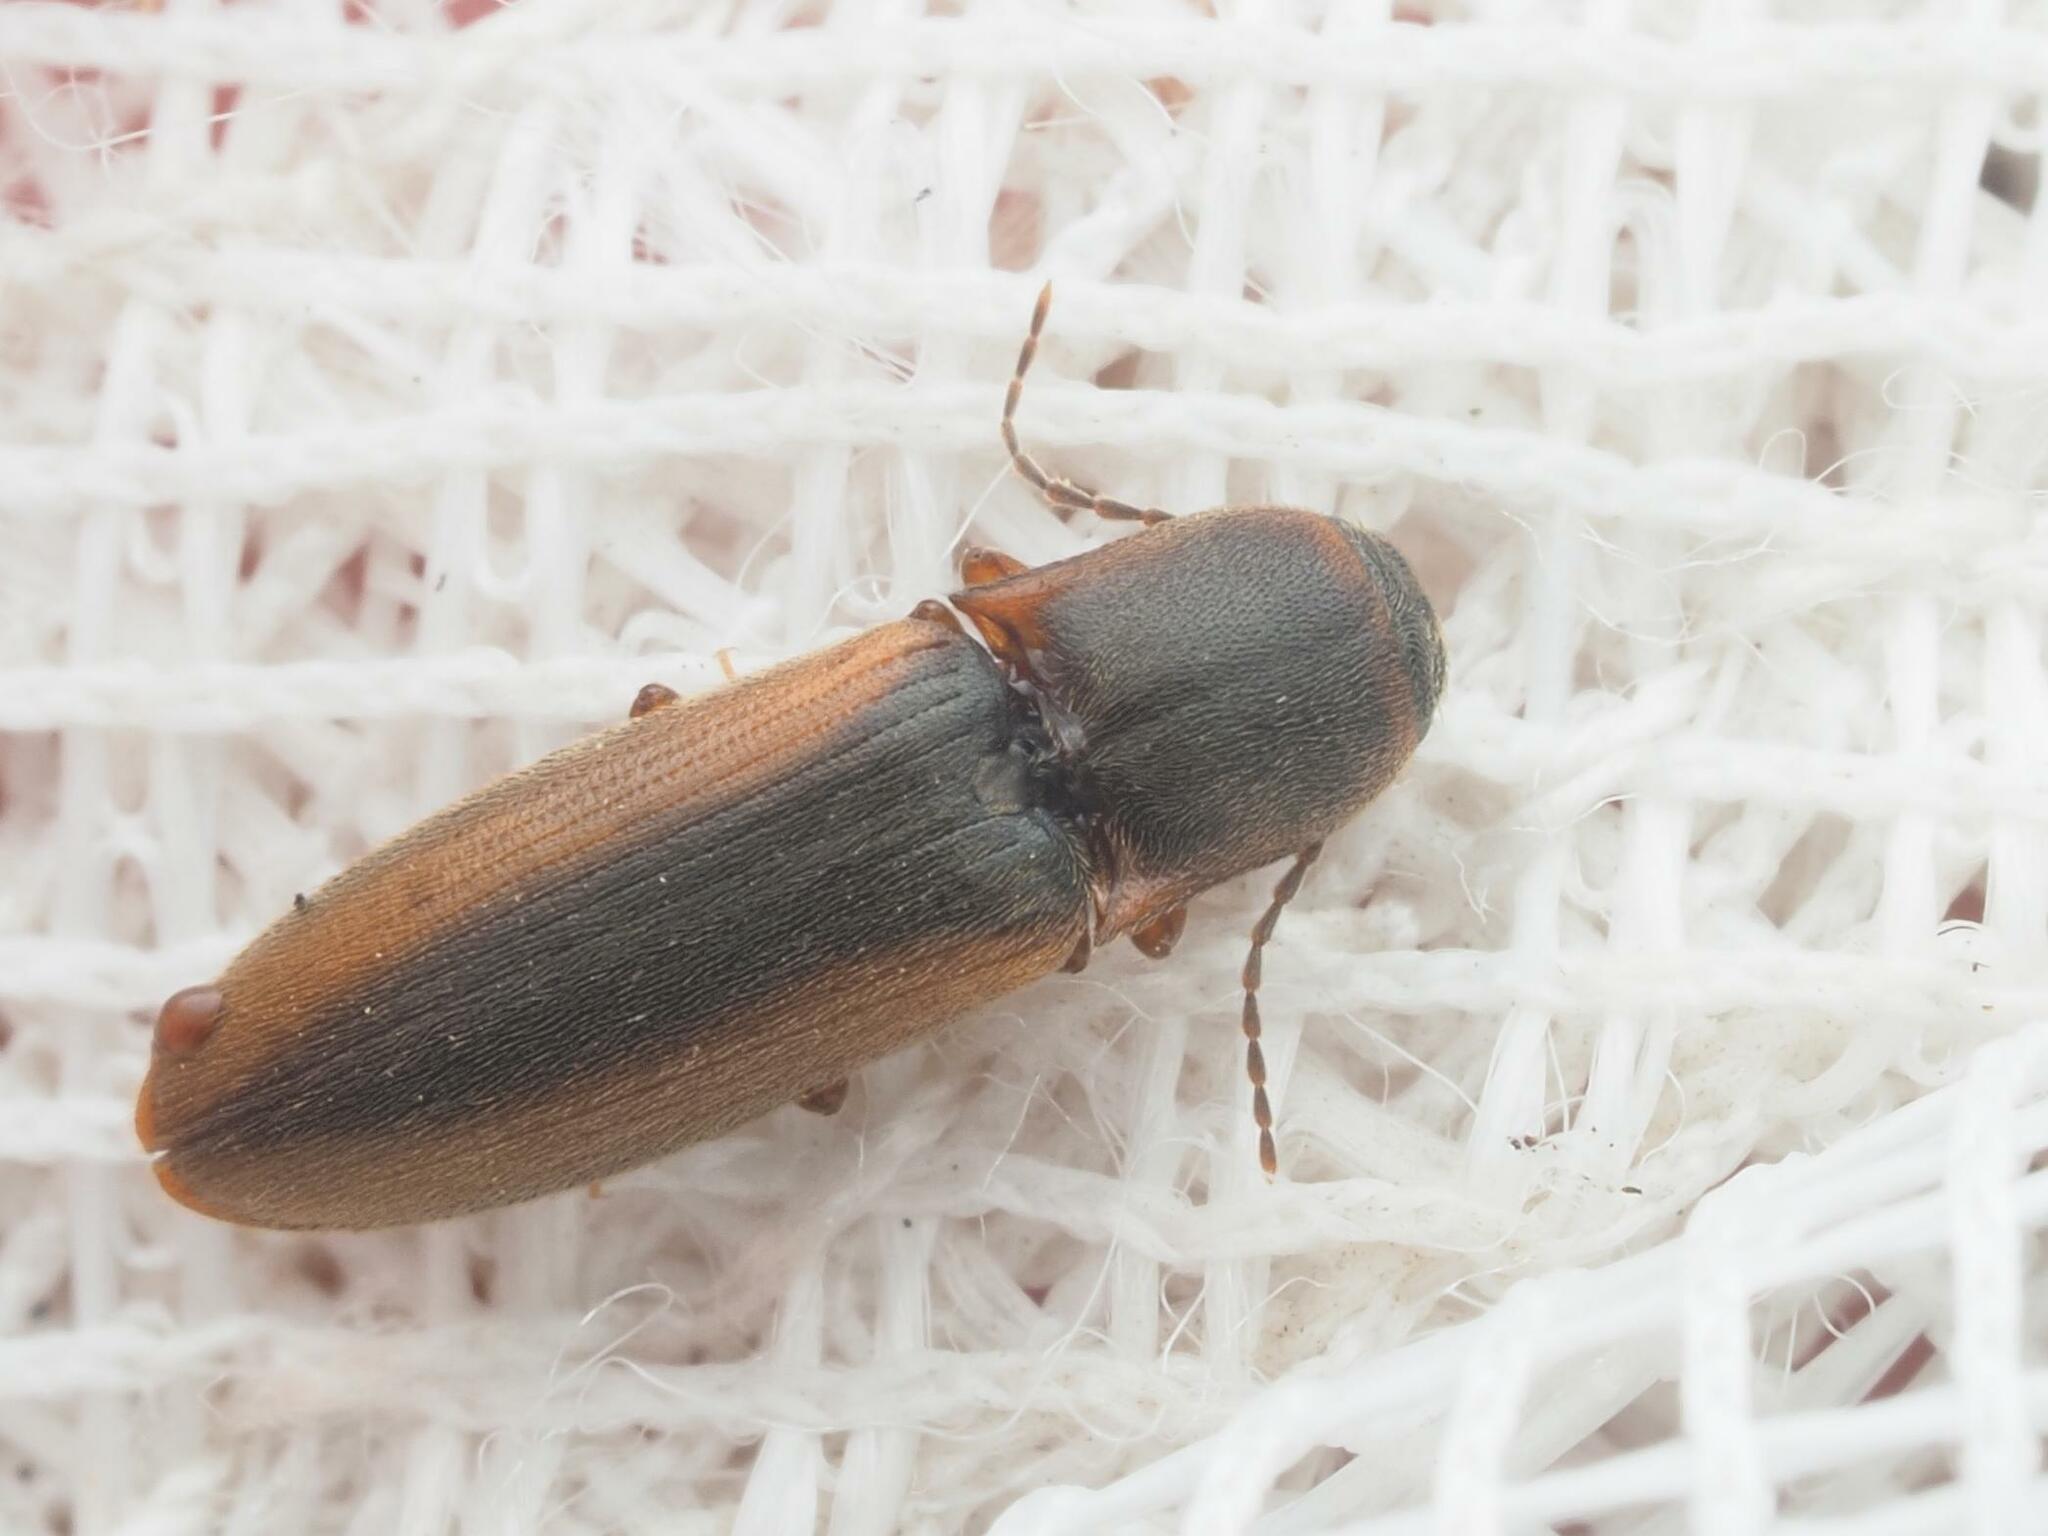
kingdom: Animalia
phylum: Arthropoda
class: Insecta
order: Coleoptera
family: Elateridae
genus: Dalopius
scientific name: Dalopius marginatus
